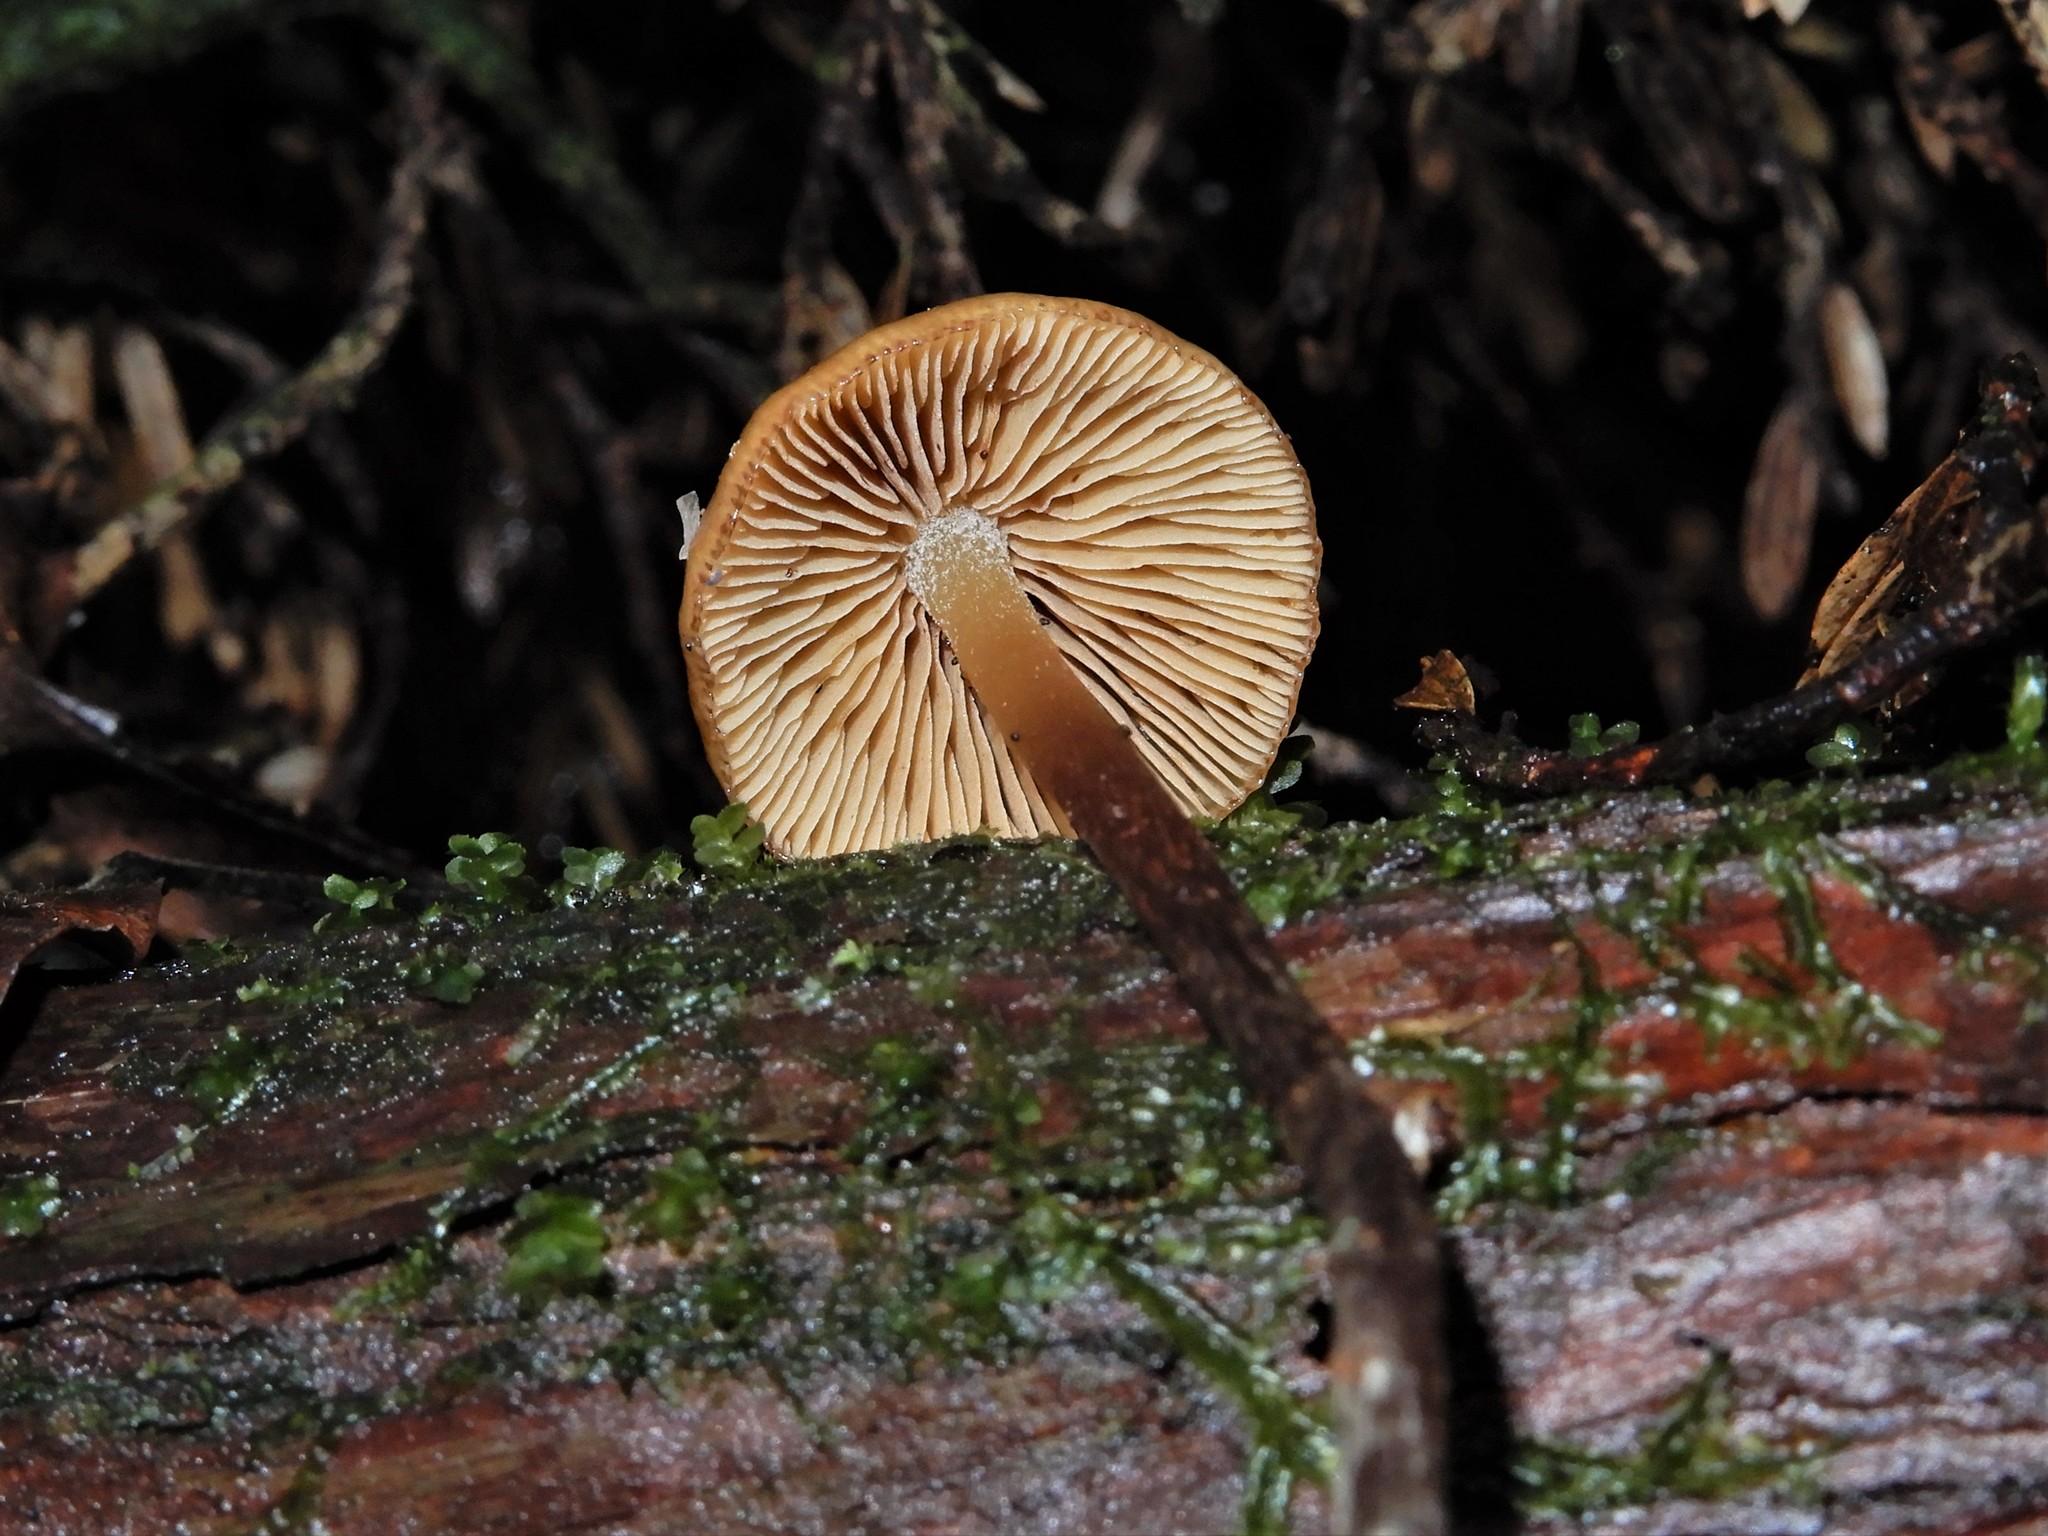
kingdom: Fungi
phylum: Basidiomycota
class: Agaricomycetes
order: Agaricales
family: Hymenogastraceae
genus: Galerina
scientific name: Galerina
